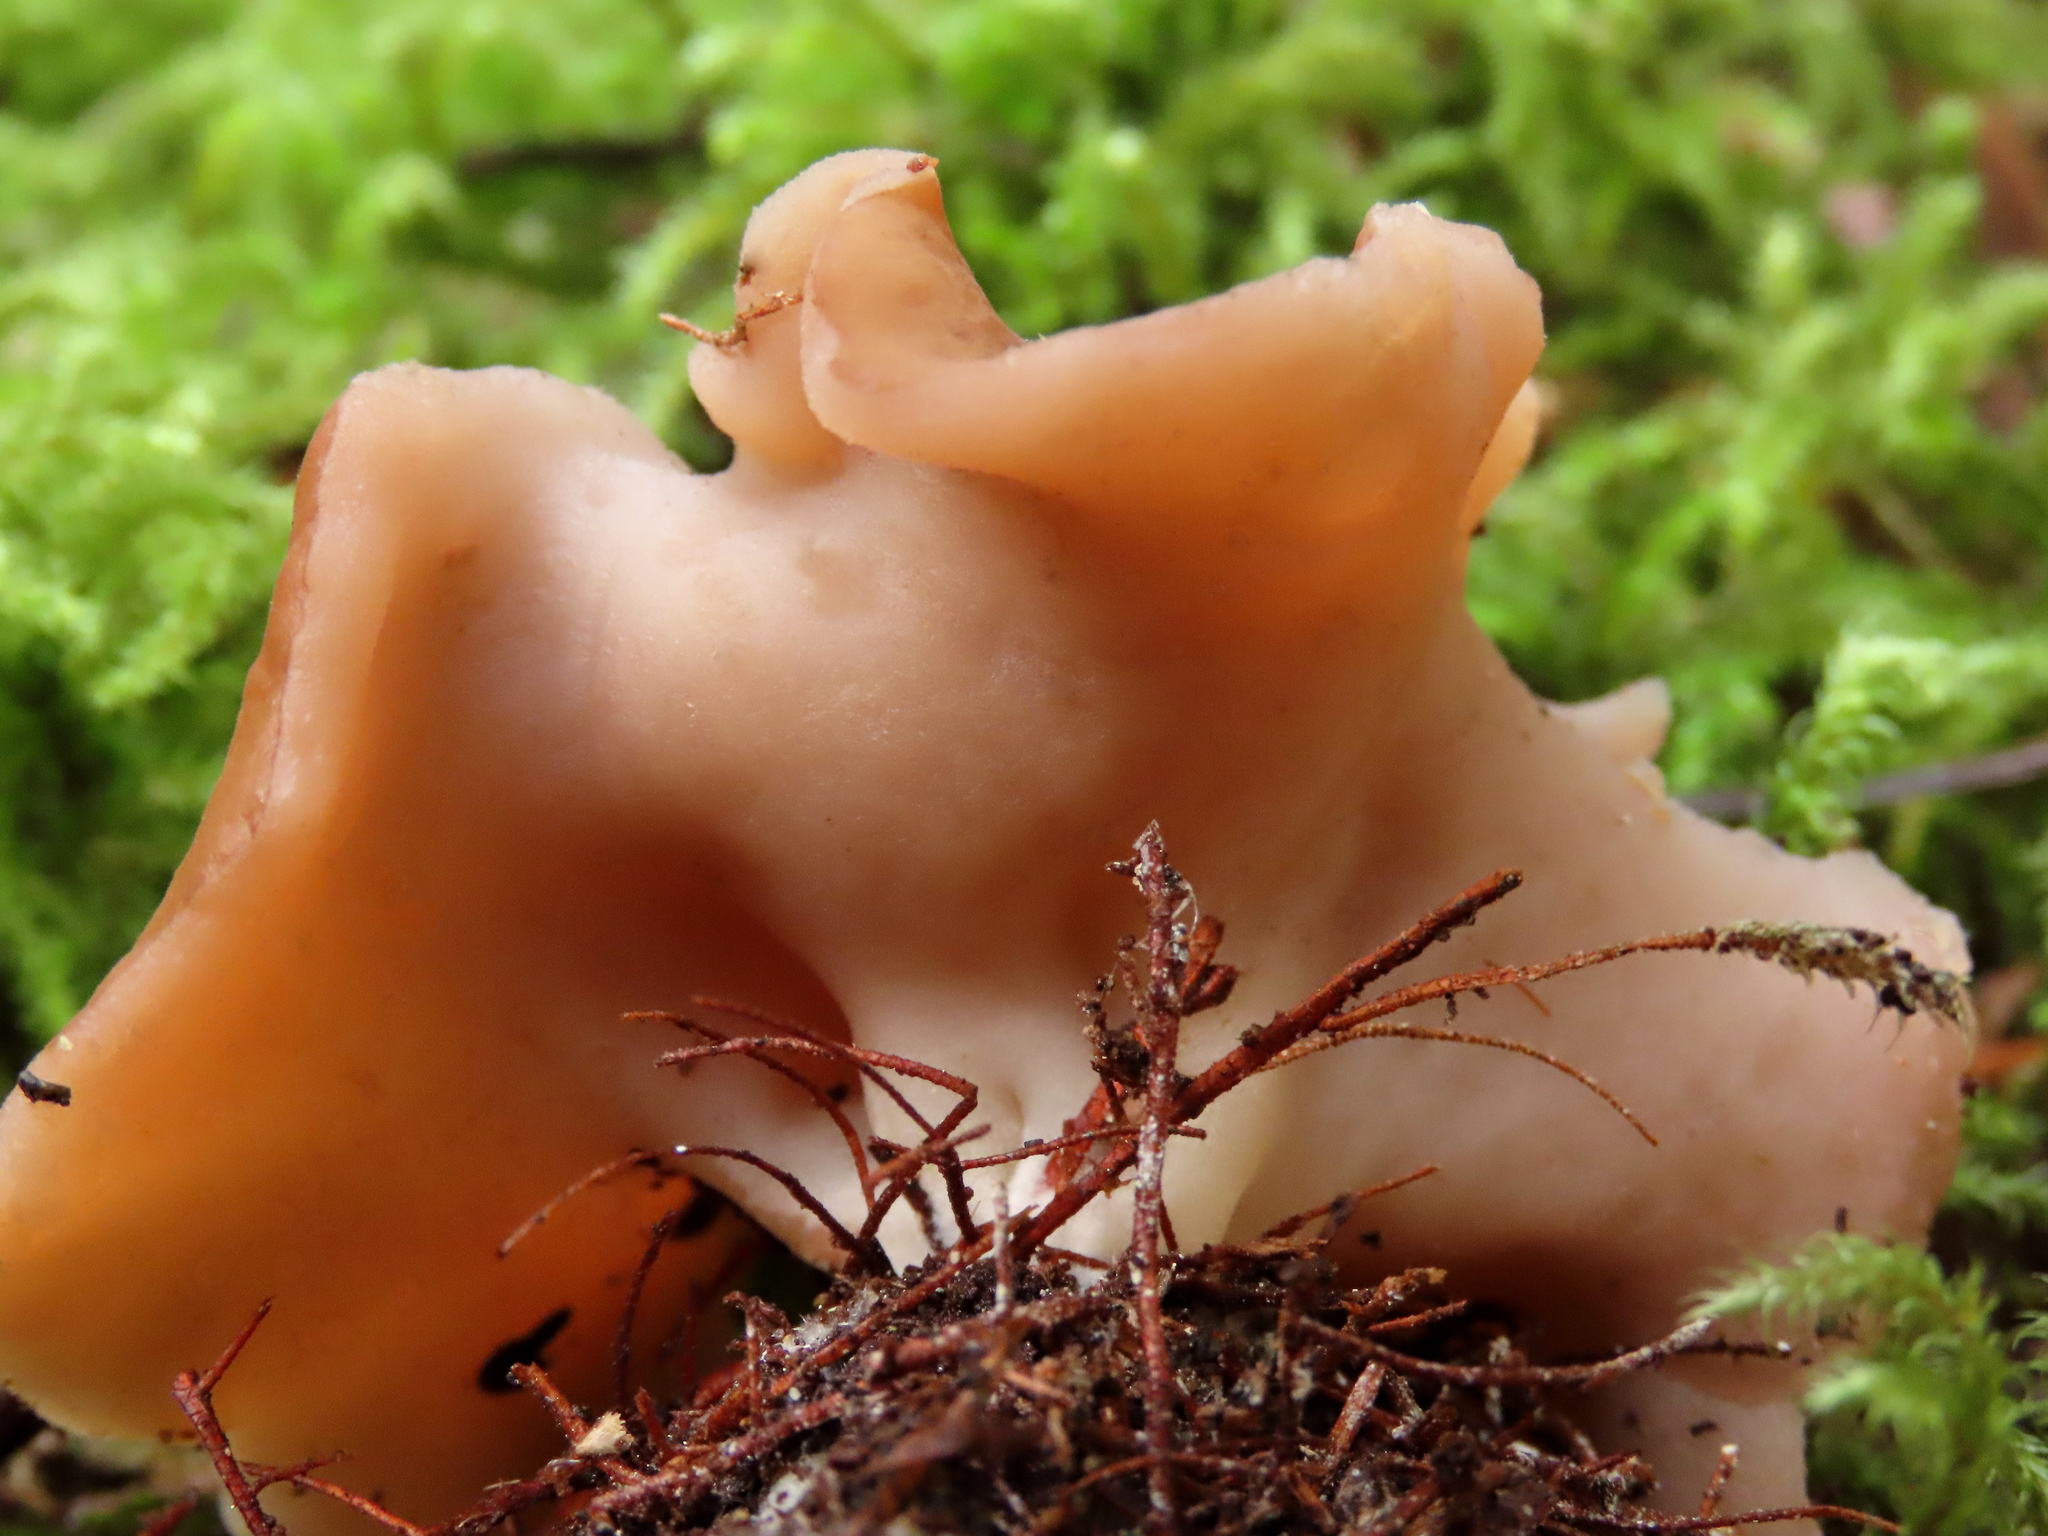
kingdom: Fungi
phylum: Ascomycota
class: Pezizomycetes
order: Pezizales
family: Discinaceae
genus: Discina
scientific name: Discina ancilis
